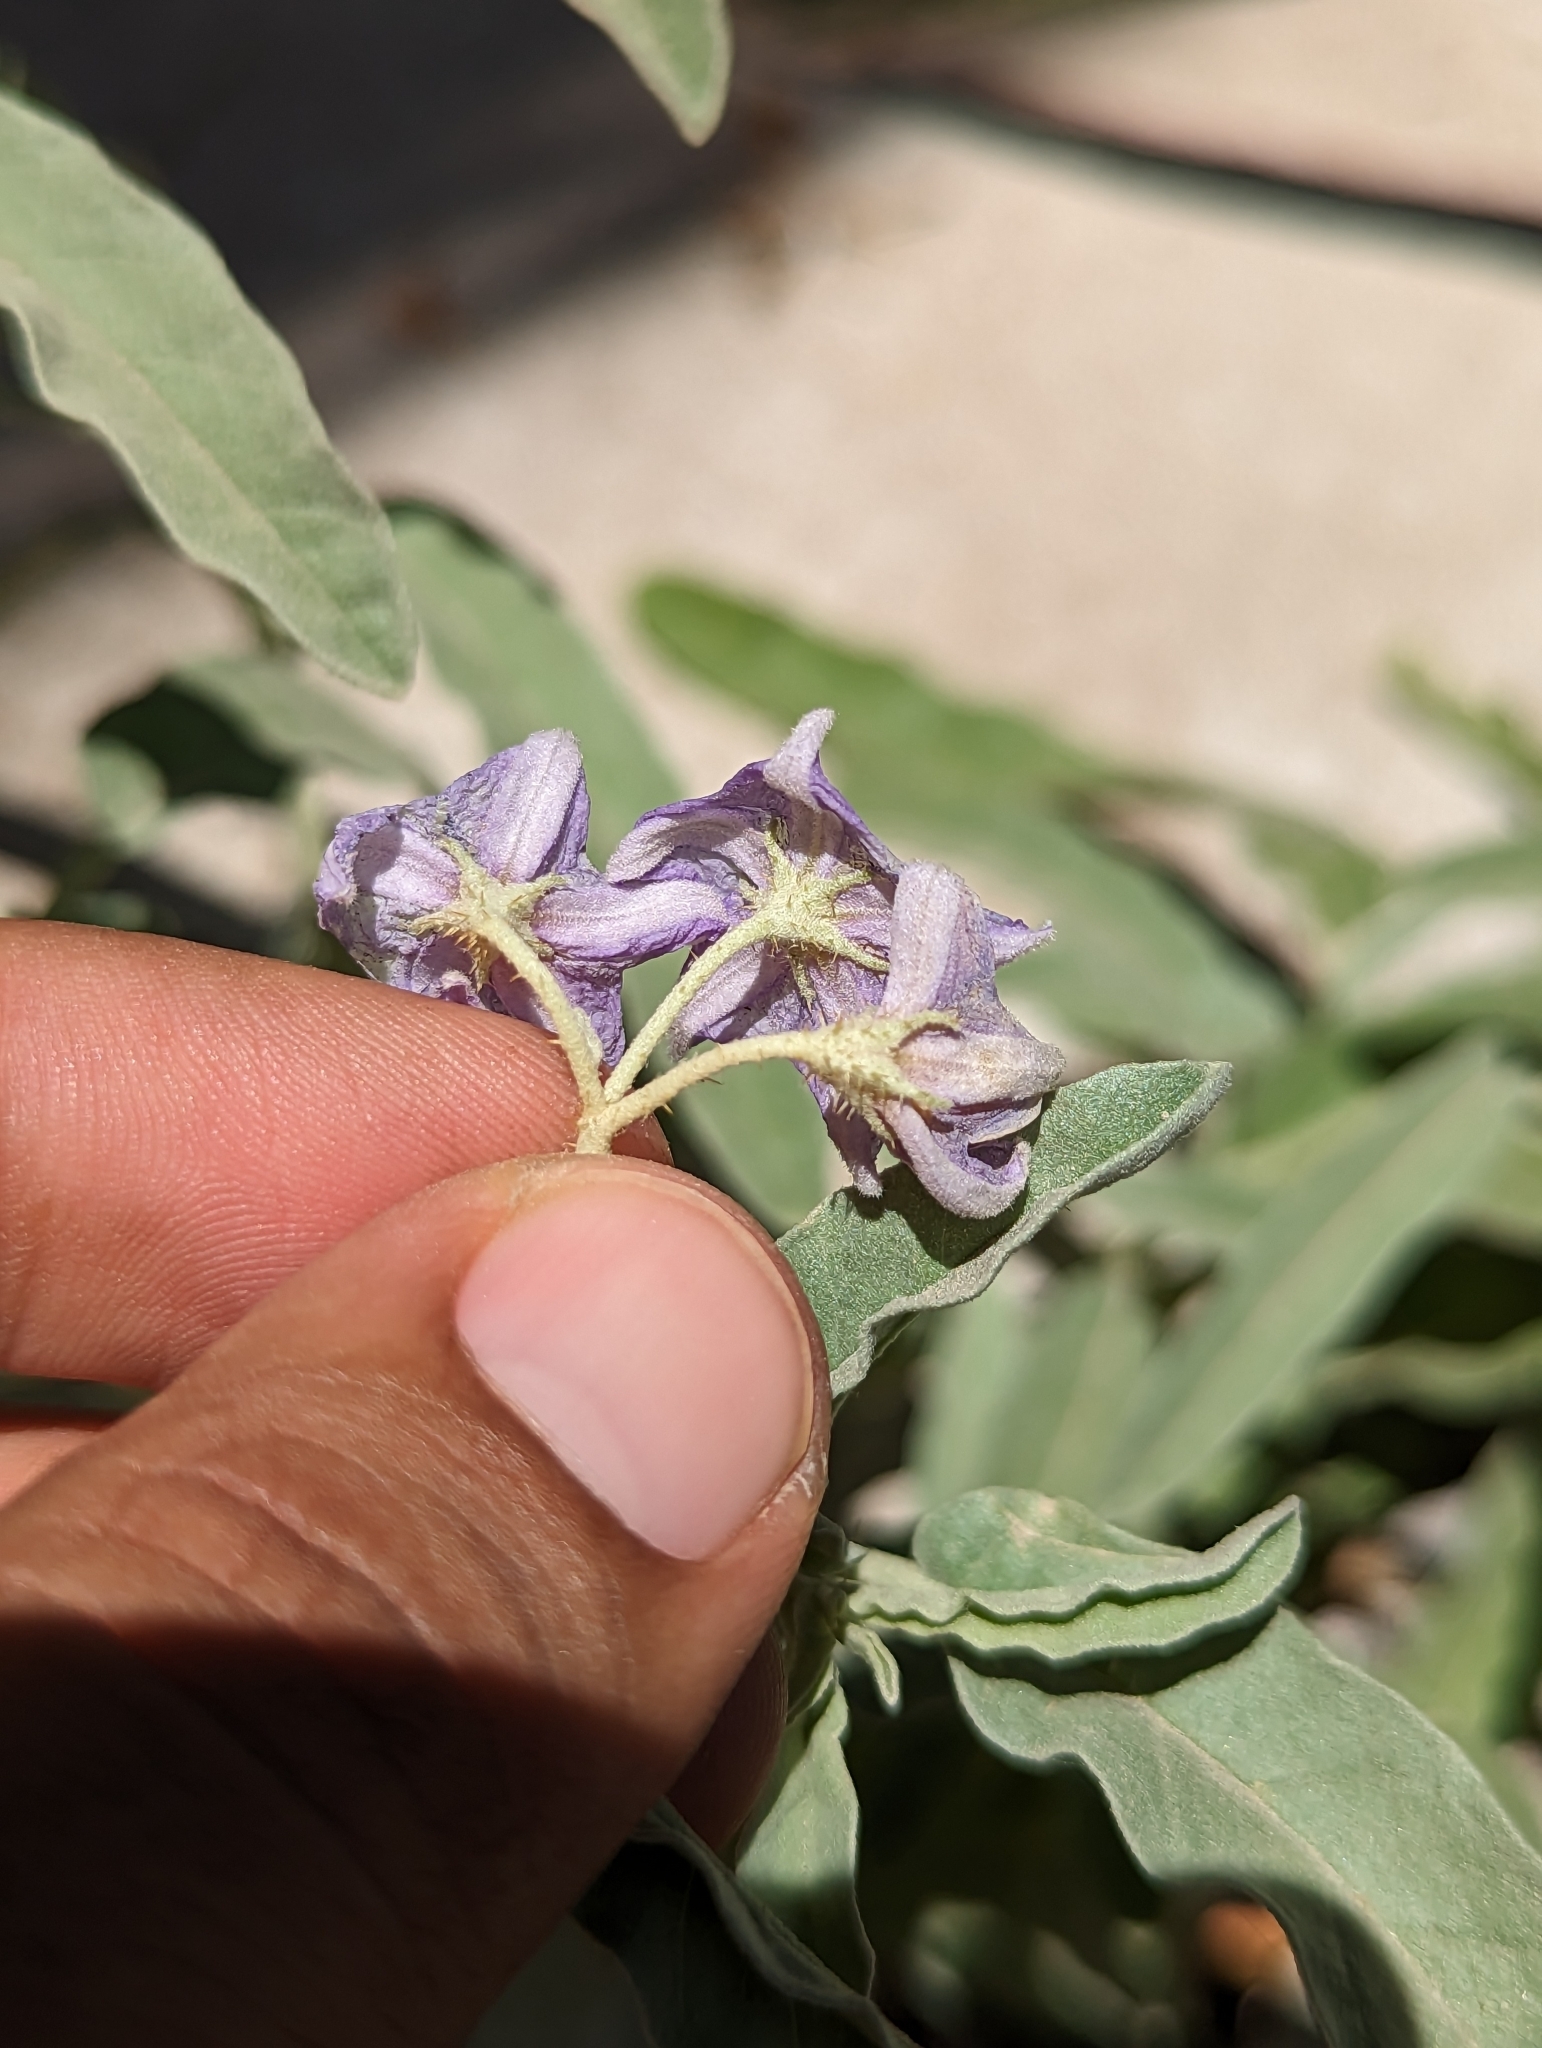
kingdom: Plantae
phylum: Tracheophyta
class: Magnoliopsida
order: Solanales
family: Solanaceae
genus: Solanum
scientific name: Solanum elaeagnifolium
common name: Silverleaf nightshade
